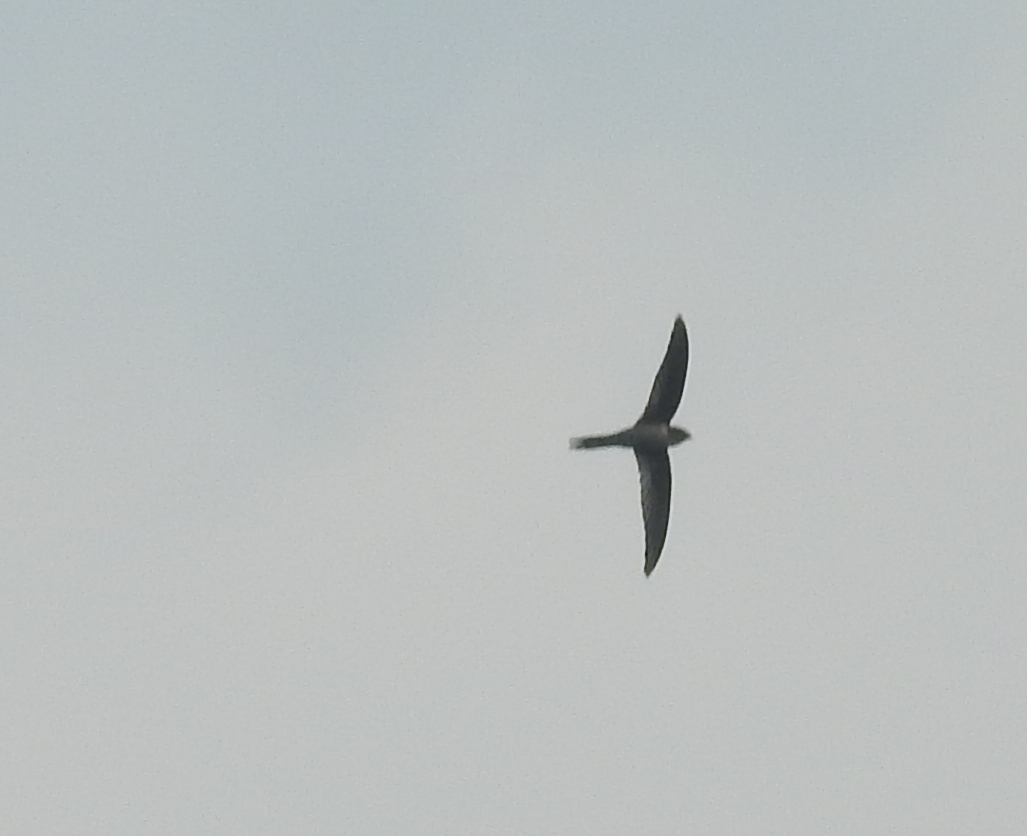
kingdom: Animalia
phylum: Chordata
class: Aves
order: Apodiformes
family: Apodidae
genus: Cypsiurus
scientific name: Cypsiurus balasiensis
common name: Asian palm swift
